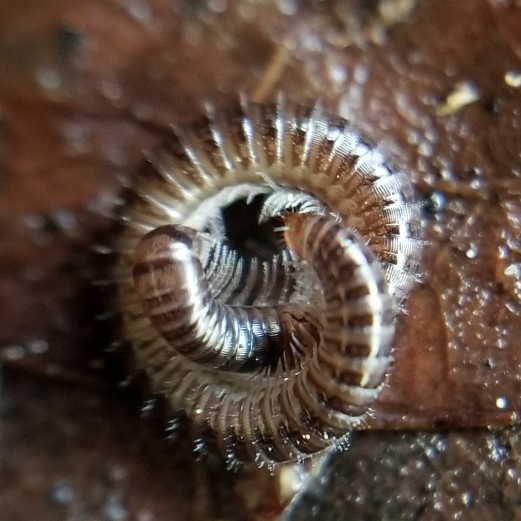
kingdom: Animalia
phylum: Arthropoda
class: Diplopoda
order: Julida
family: Julidae
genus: Ophyiulus
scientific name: Ophyiulus pilosus
